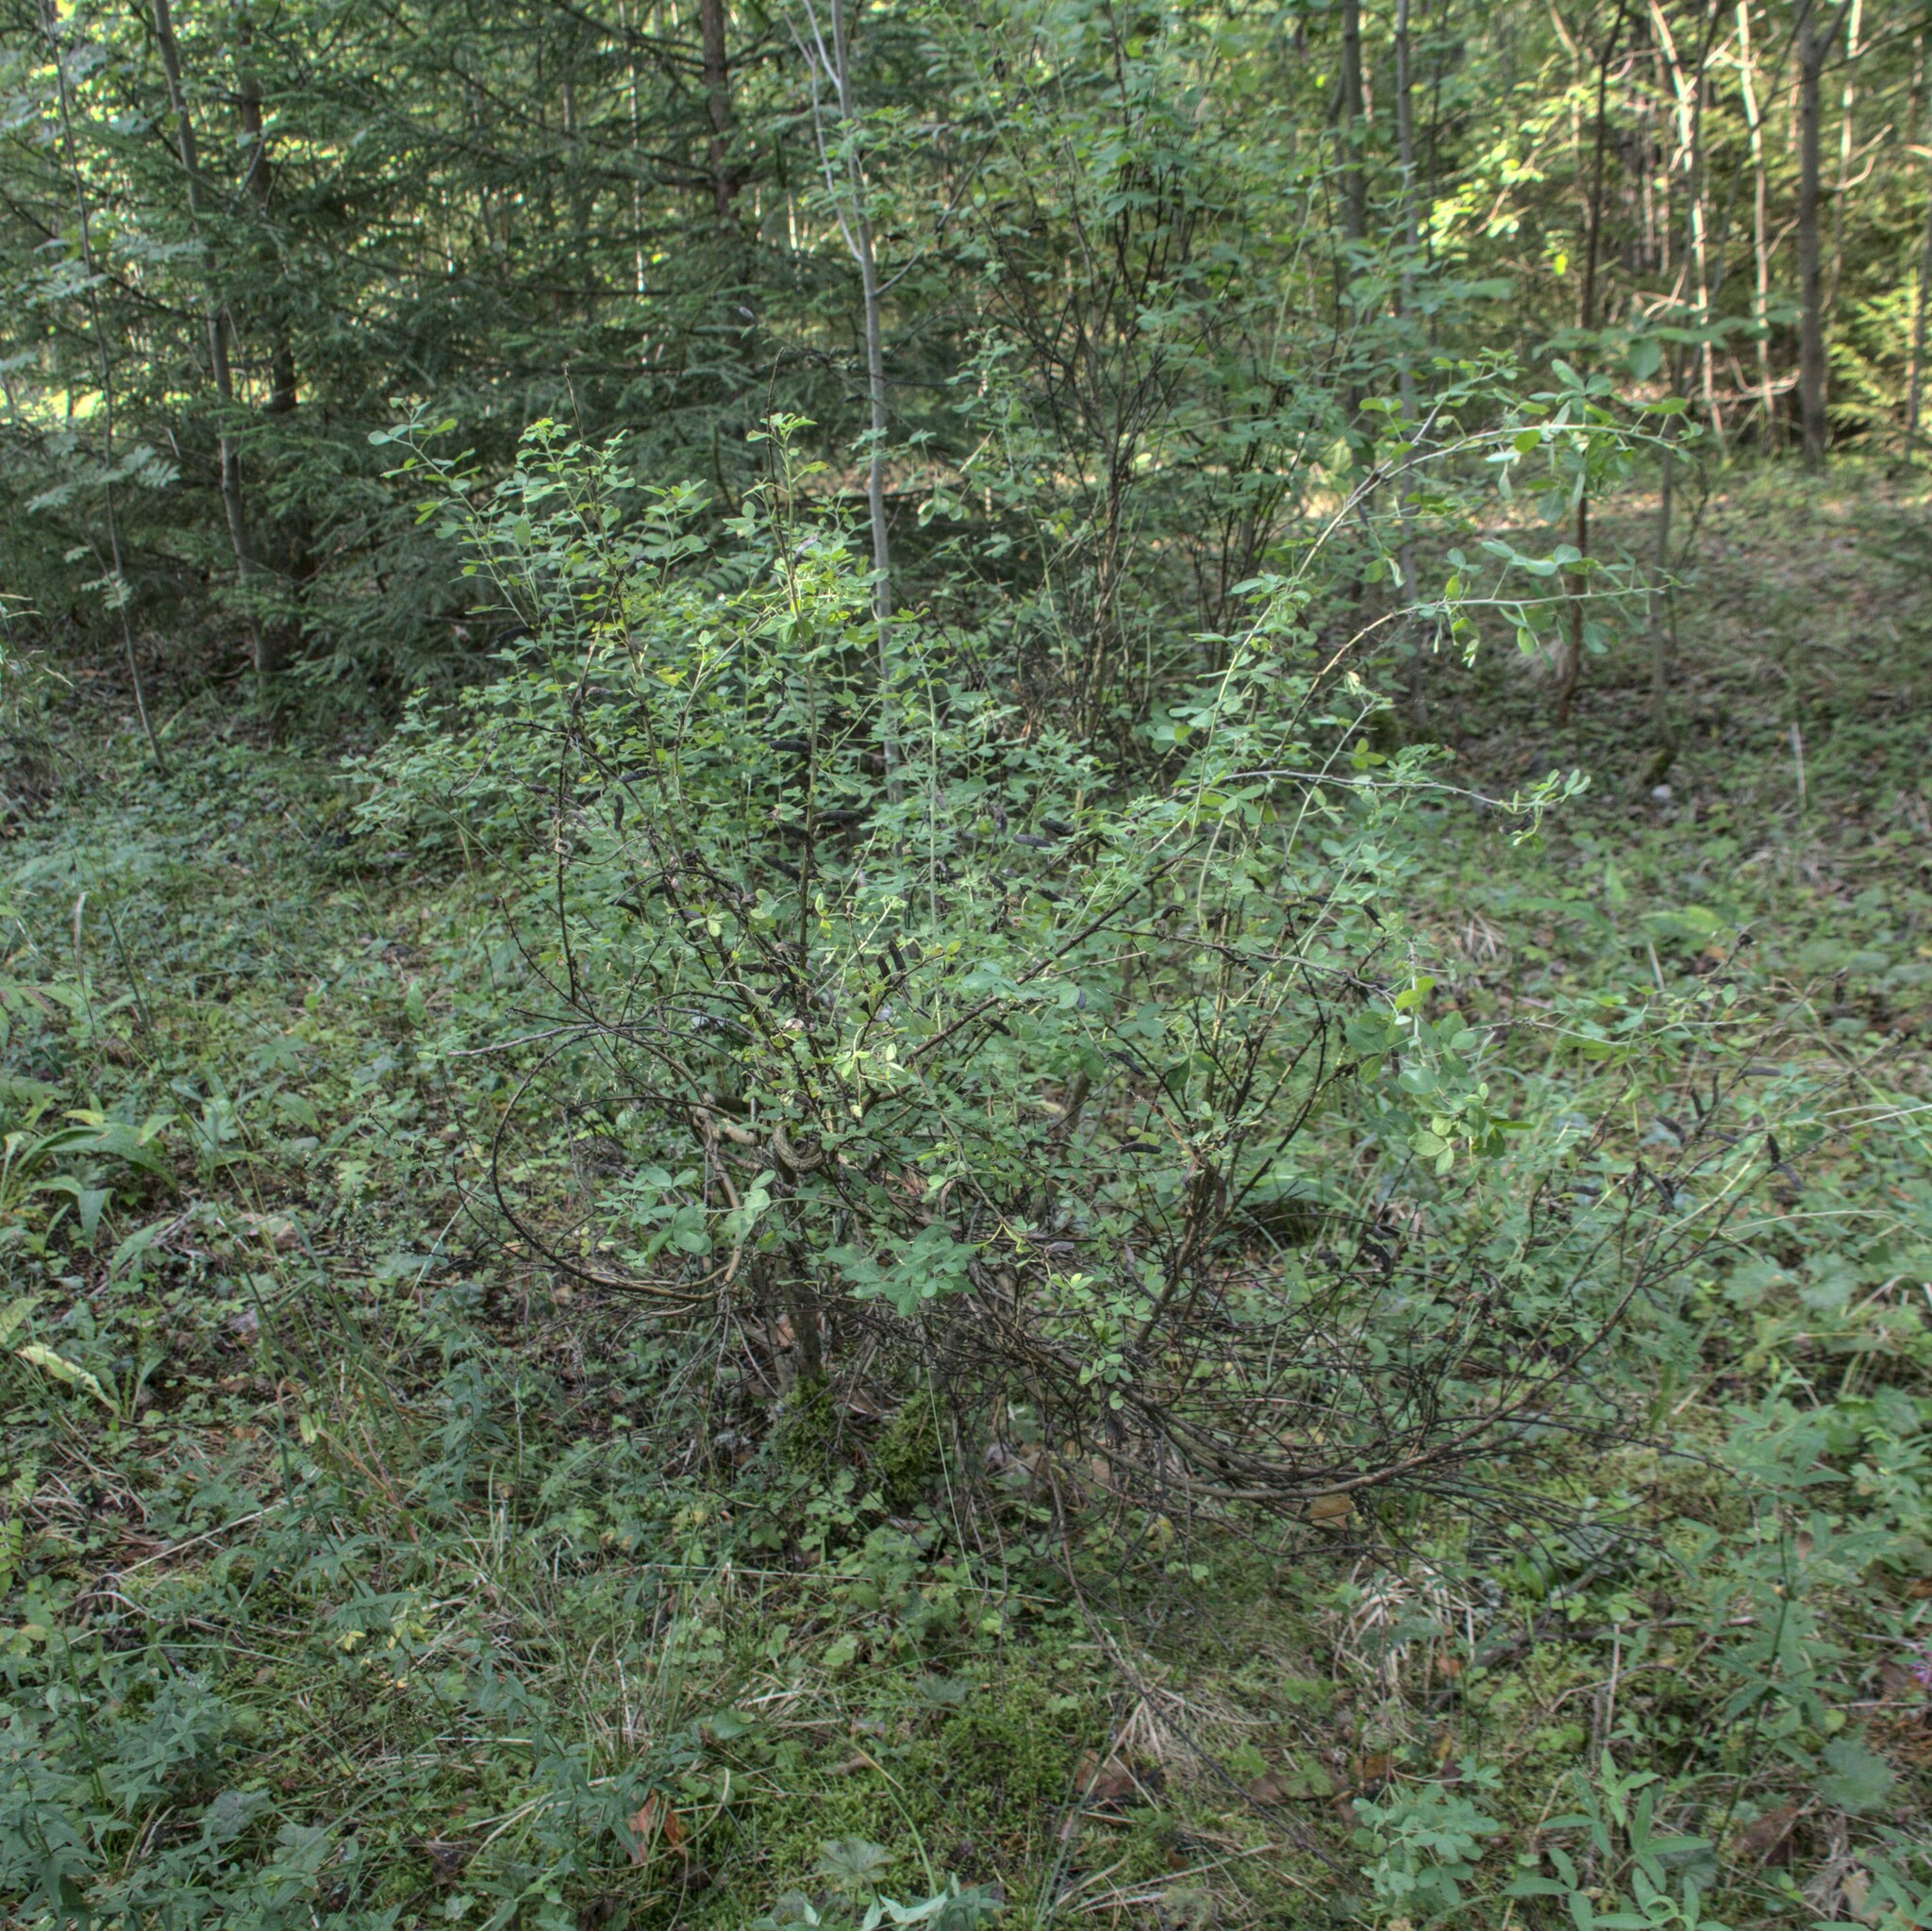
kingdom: Plantae
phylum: Tracheophyta
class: Magnoliopsida
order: Fabales
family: Fabaceae
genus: Chamaecytisus
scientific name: Chamaecytisus ruthenicus
